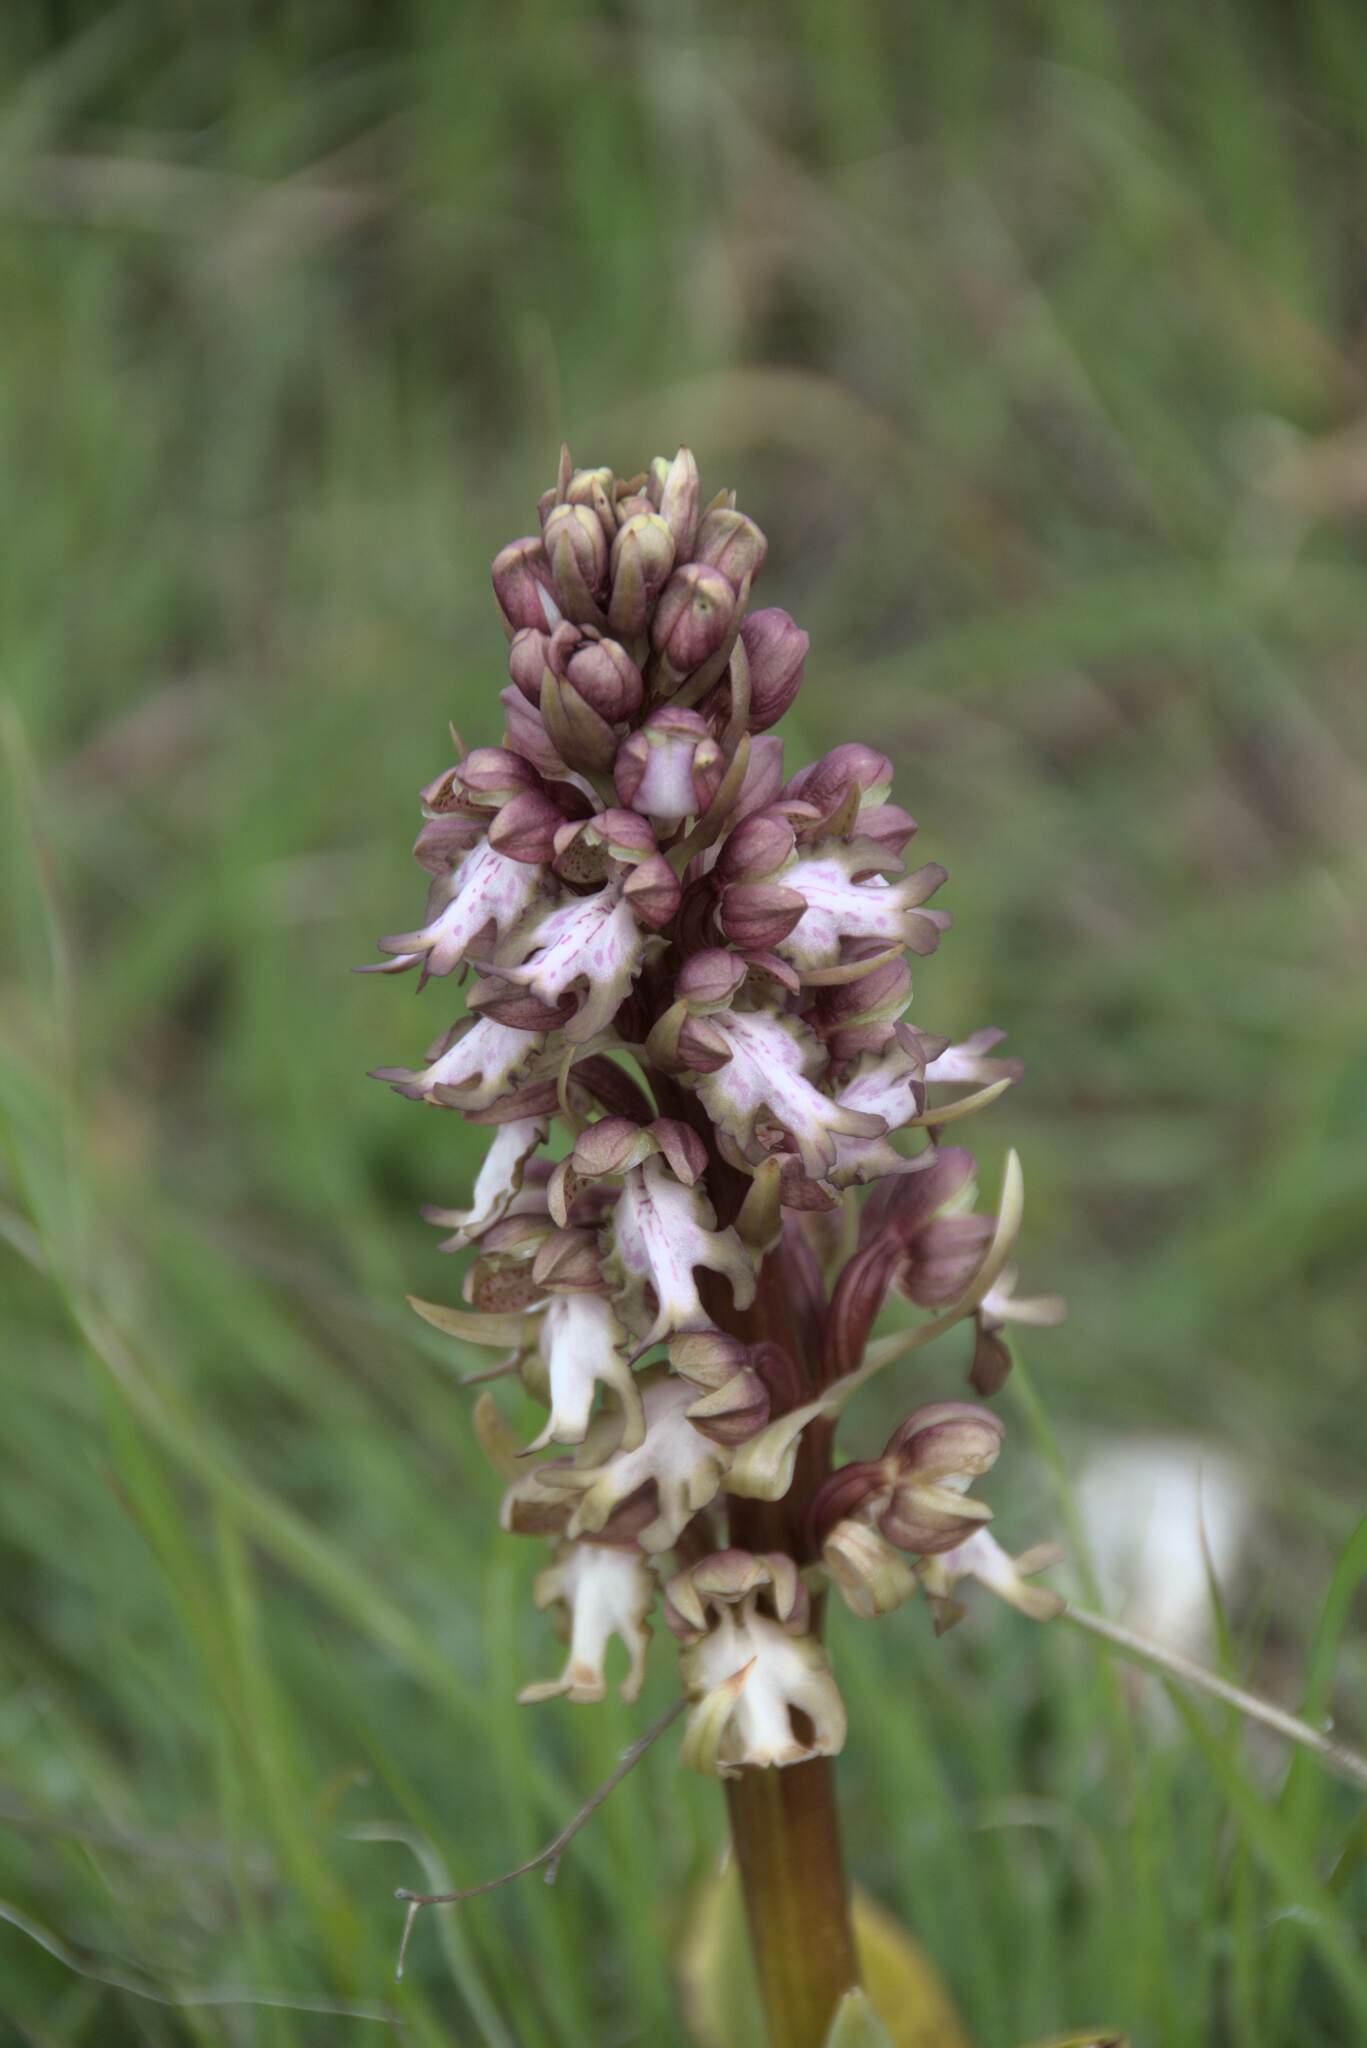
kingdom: Plantae
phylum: Tracheophyta
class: Liliopsida
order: Asparagales
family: Orchidaceae
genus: Himantoglossum
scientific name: Himantoglossum robertianum
